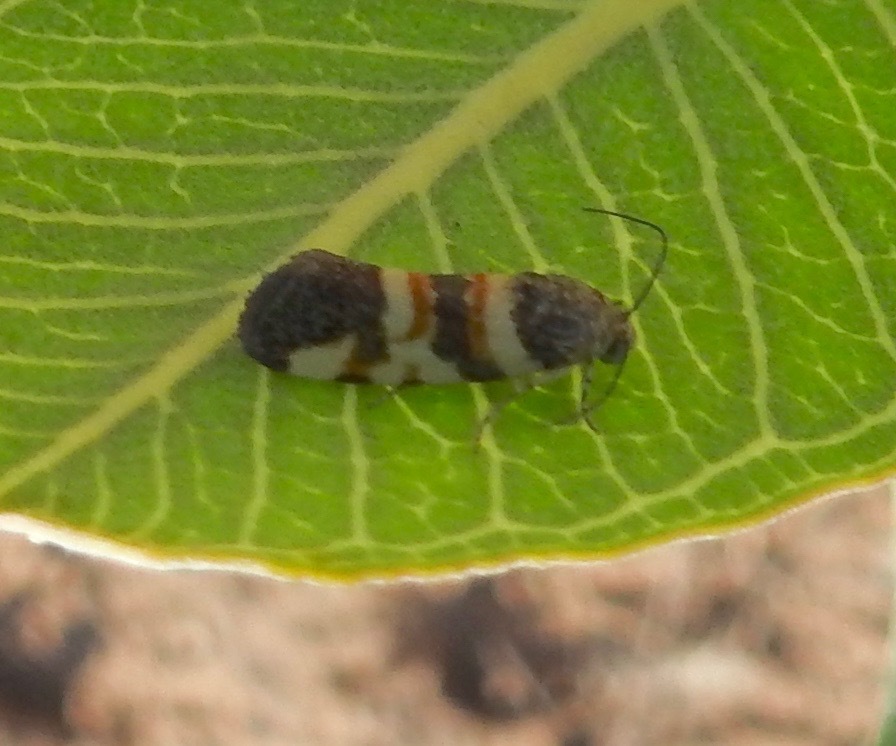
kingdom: Animalia
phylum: Arthropoda
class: Insecta
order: Lepidoptera
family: Noctuidae
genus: Spragueia
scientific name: Spragueia funeralis
